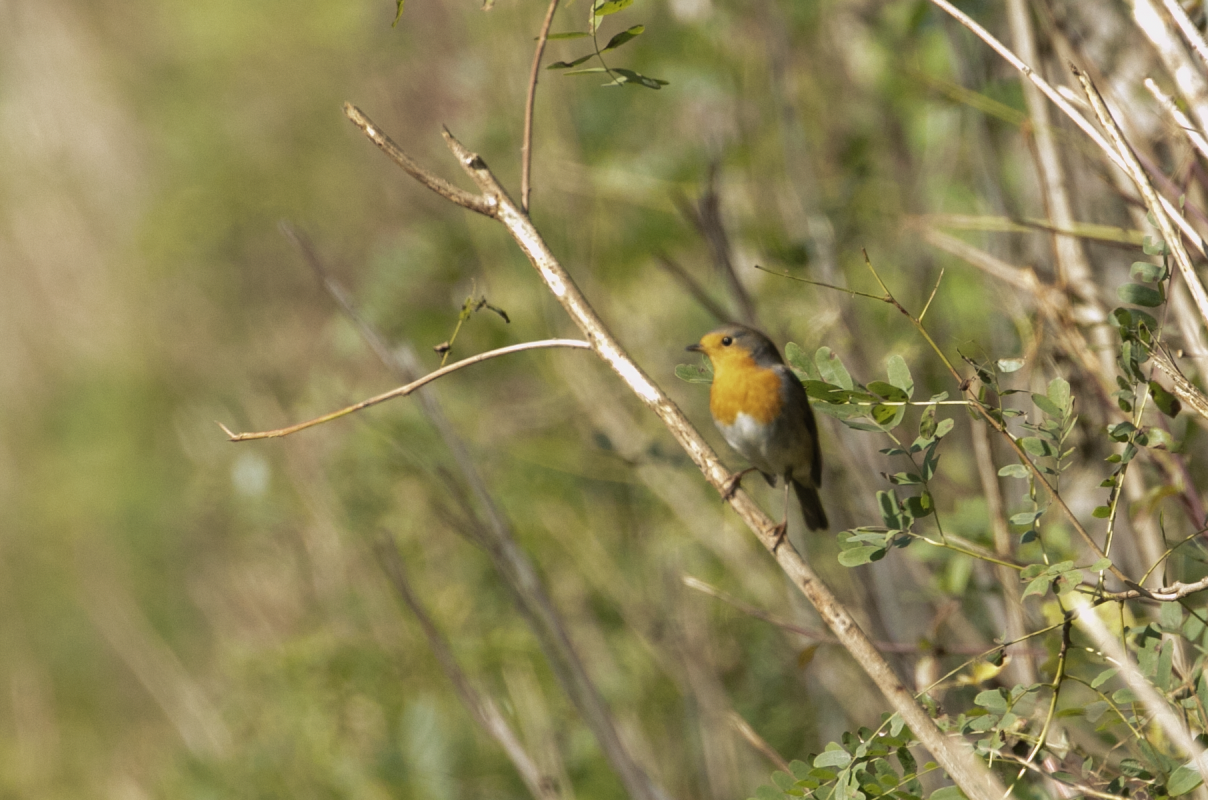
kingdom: Animalia
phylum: Chordata
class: Aves
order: Passeriformes
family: Muscicapidae
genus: Erithacus
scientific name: Erithacus rubecula
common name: European robin
